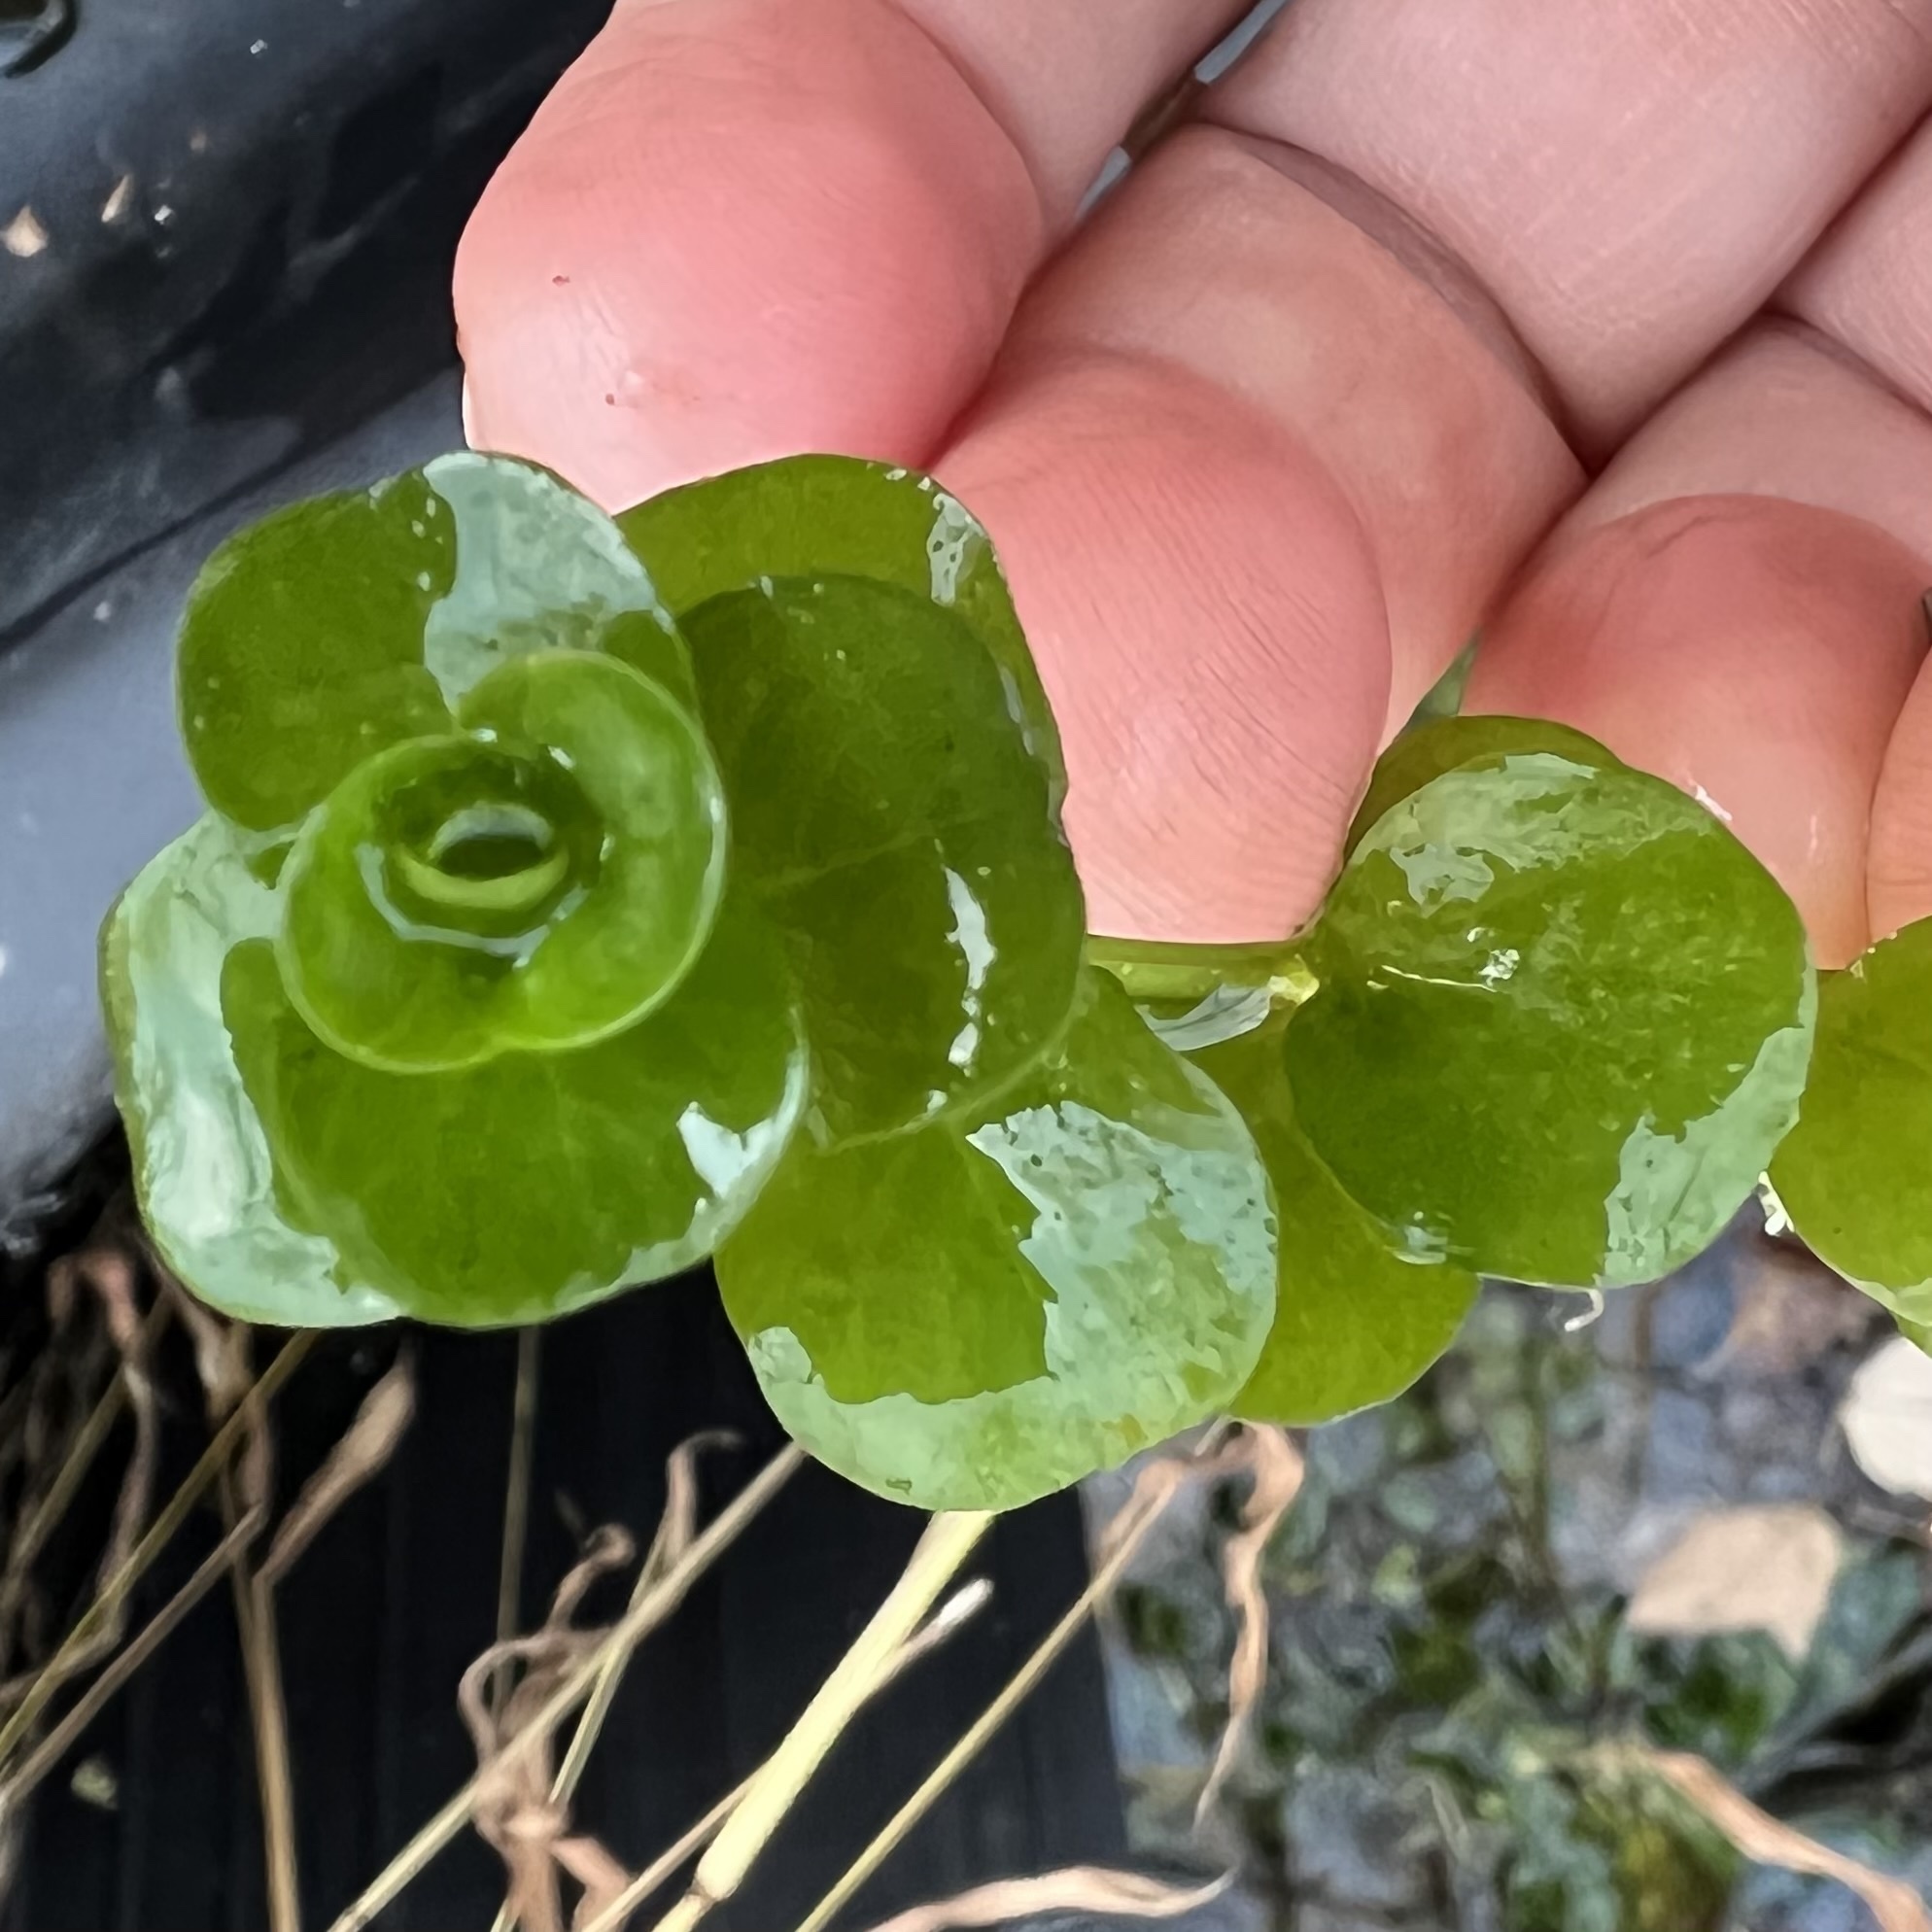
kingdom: Plantae
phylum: Tracheophyta
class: Magnoliopsida
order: Ericales
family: Primulaceae
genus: Lysimachia
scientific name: Lysimachia nummularia
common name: Moneywort
